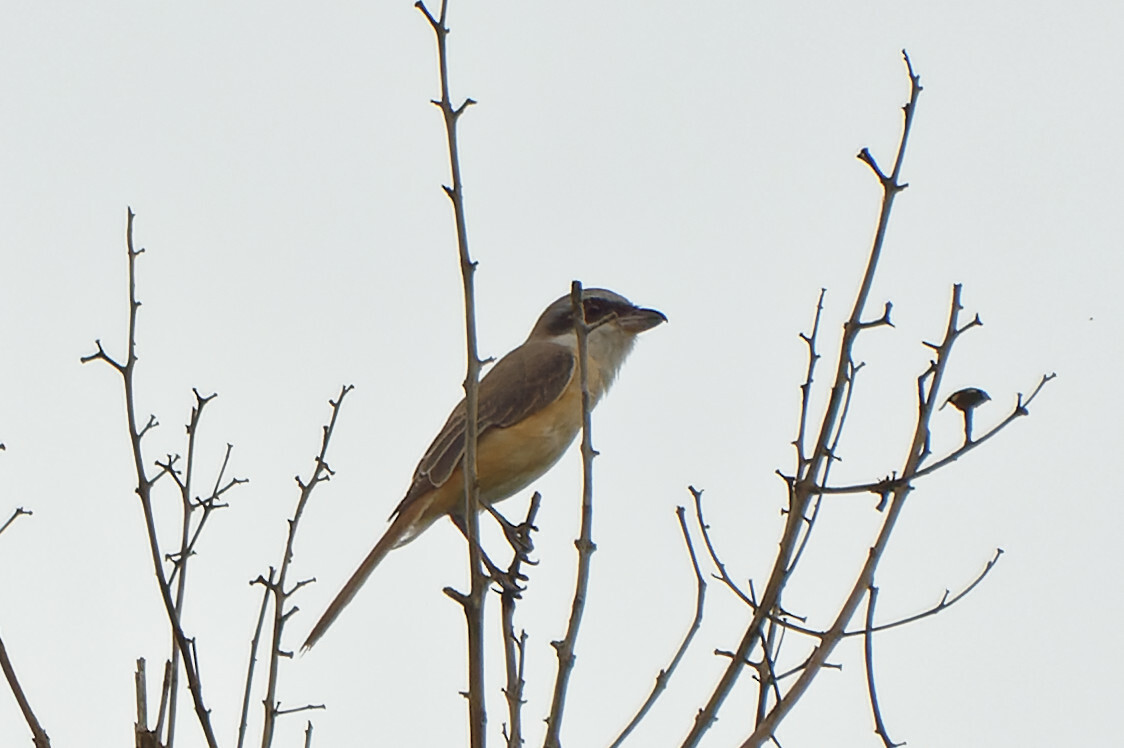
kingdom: Animalia
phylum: Chordata
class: Aves
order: Passeriformes
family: Laniidae
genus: Lanius
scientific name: Lanius cristatus
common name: Brown shrike
